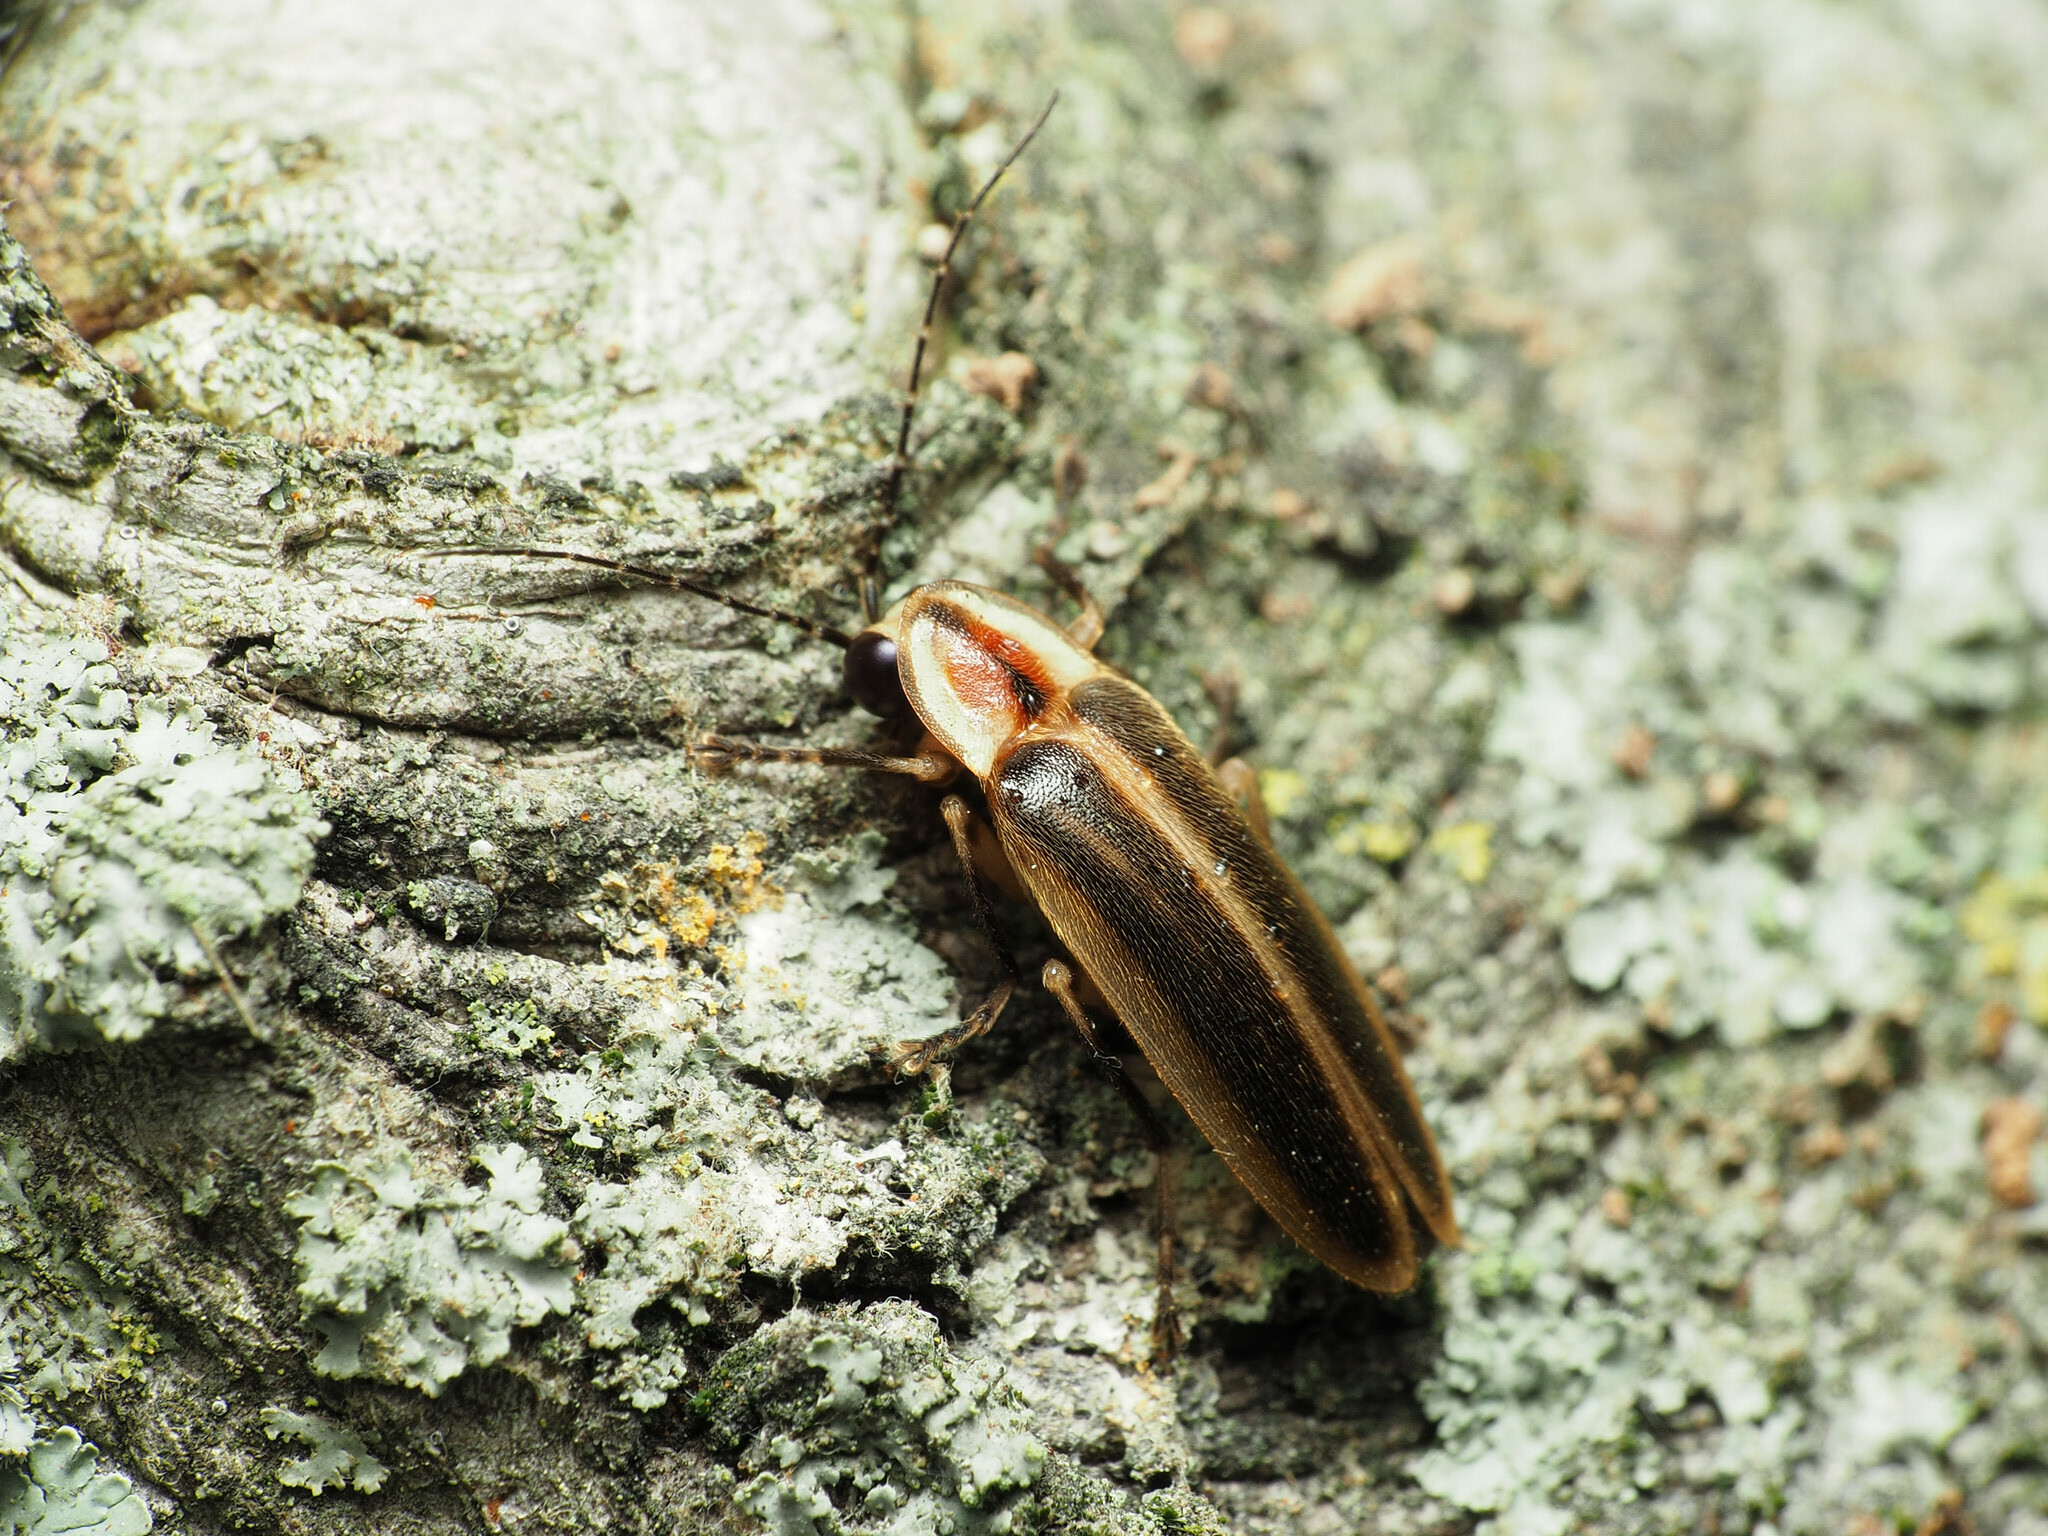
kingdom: Animalia
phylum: Arthropoda
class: Insecta
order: Coleoptera
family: Lampyridae
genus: Photuris
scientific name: Photuris
